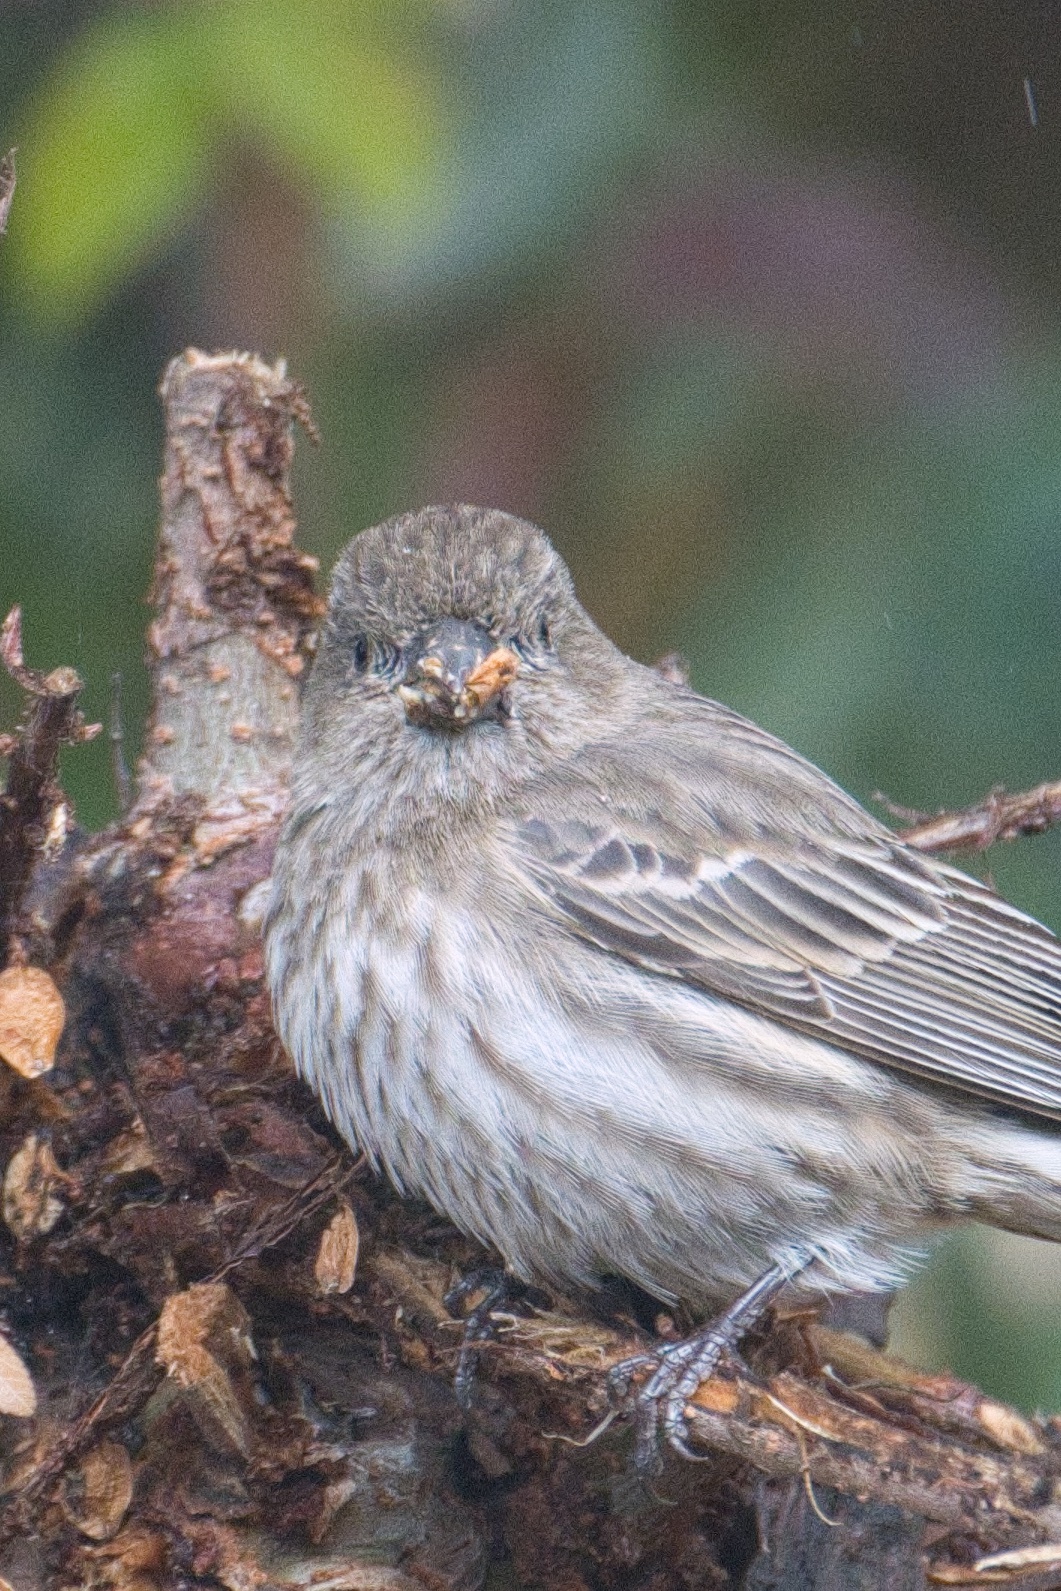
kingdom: Animalia
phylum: Chordata
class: Aves
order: Passeriformes
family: Fringillidae
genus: Haemorhous
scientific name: Haemorhous mexicanus
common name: House finch
